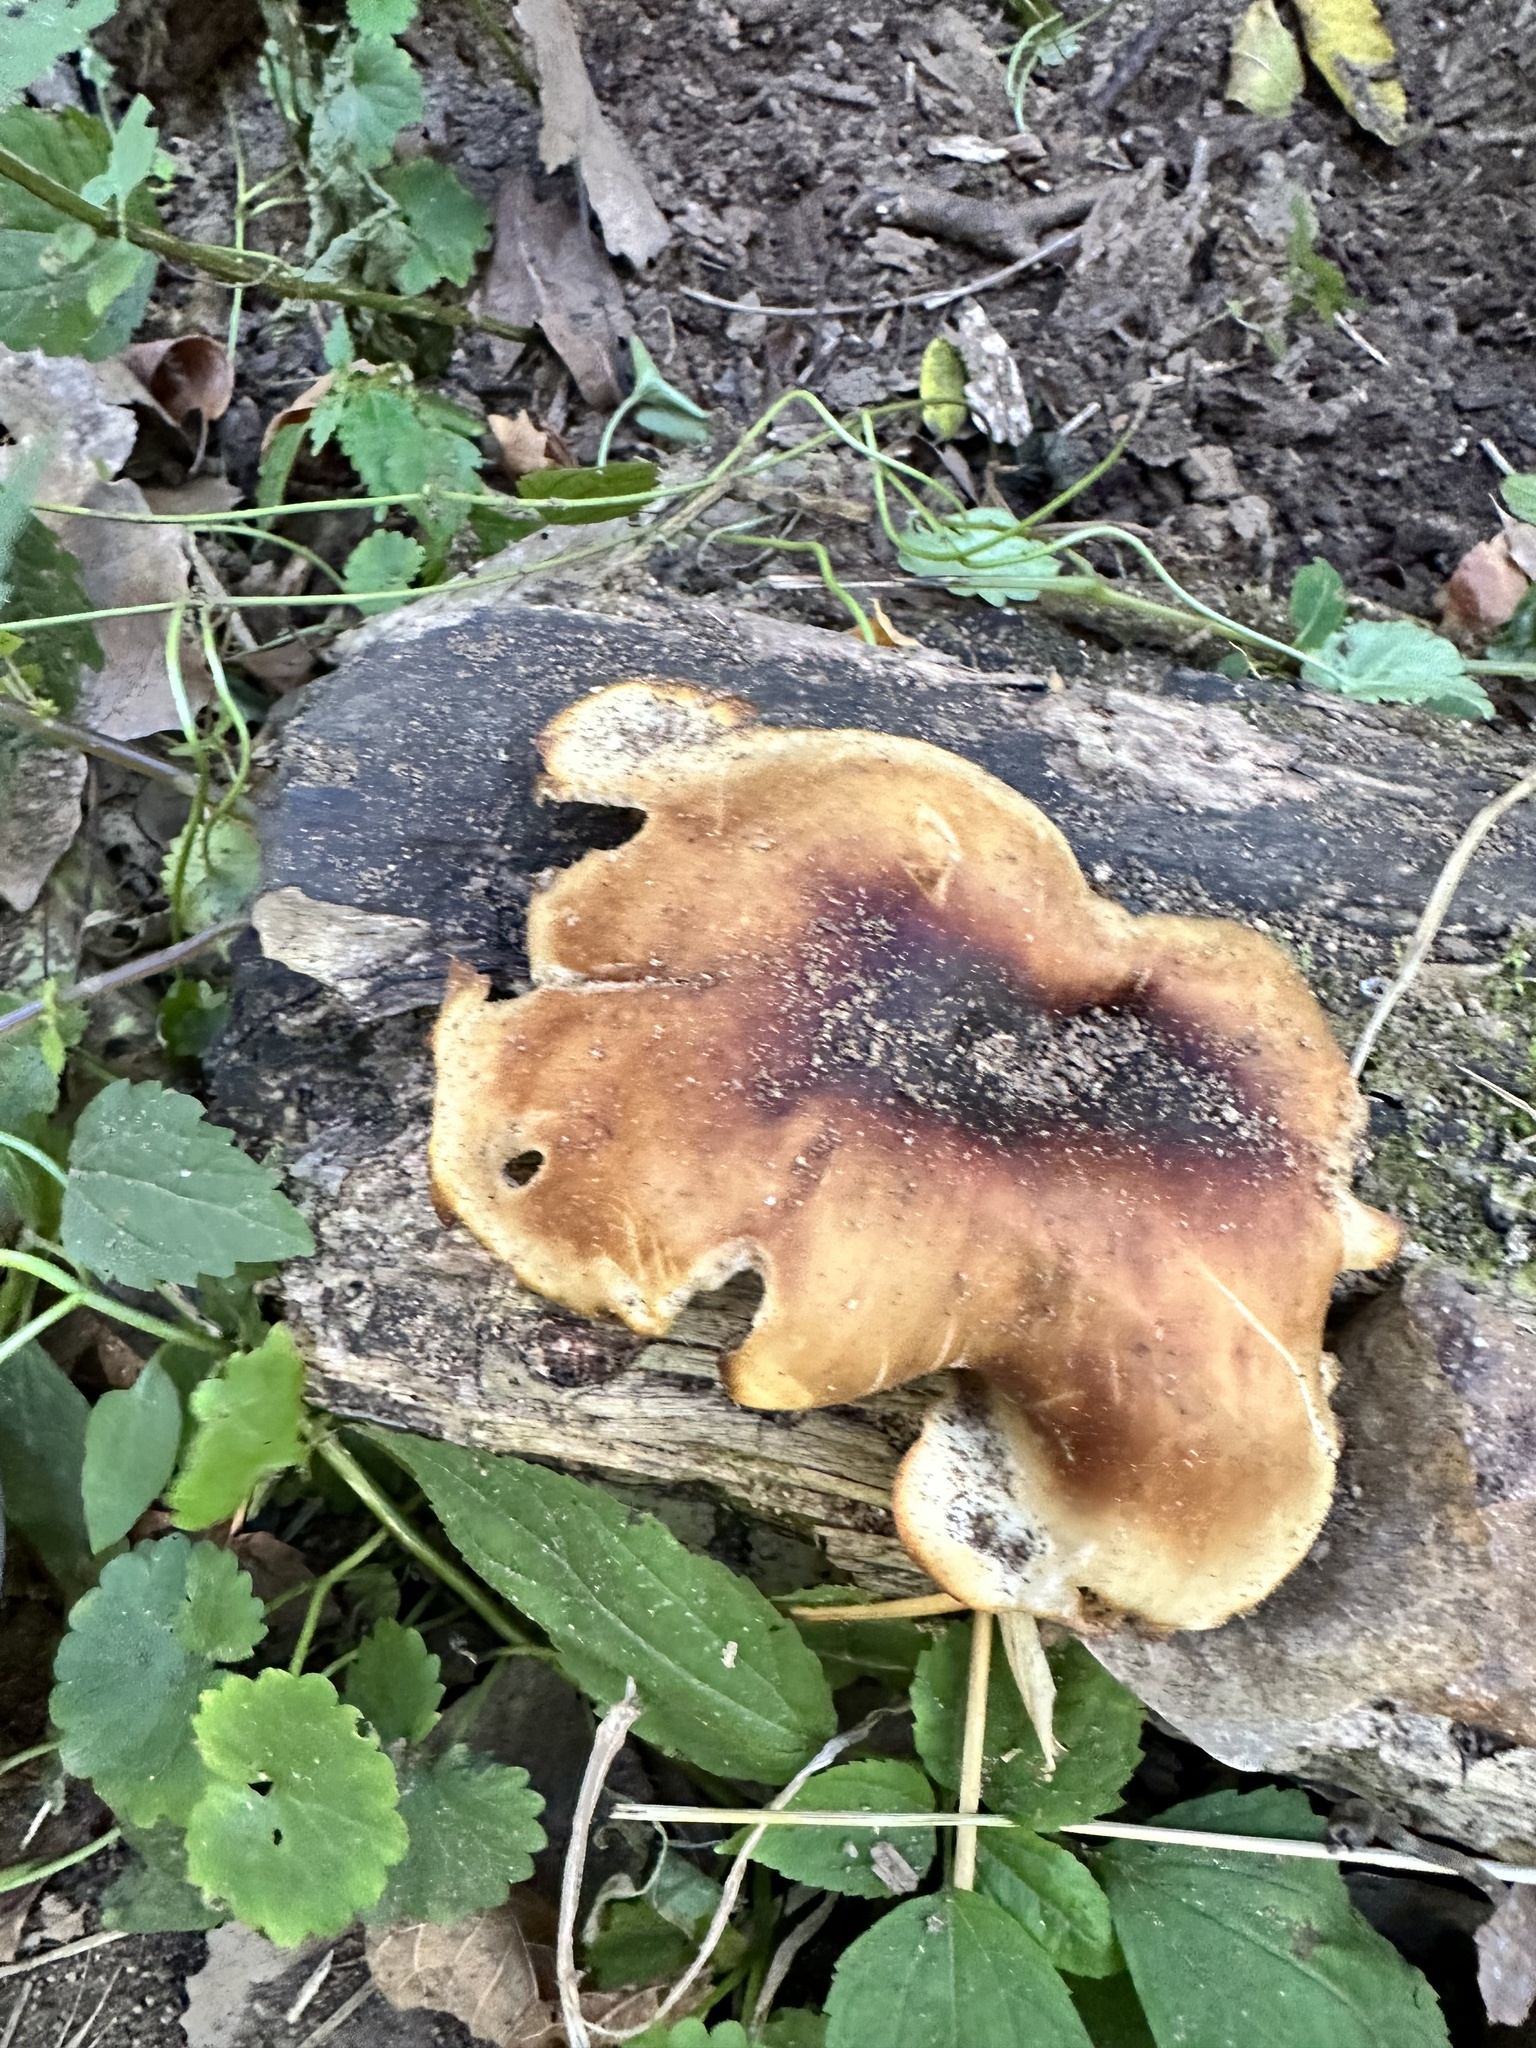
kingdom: Fungi
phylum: Basidiomycota
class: Agaricomycetes
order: Polyporales
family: Polyporaceae
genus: Picipes
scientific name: Picipes badius
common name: Bay polypore
